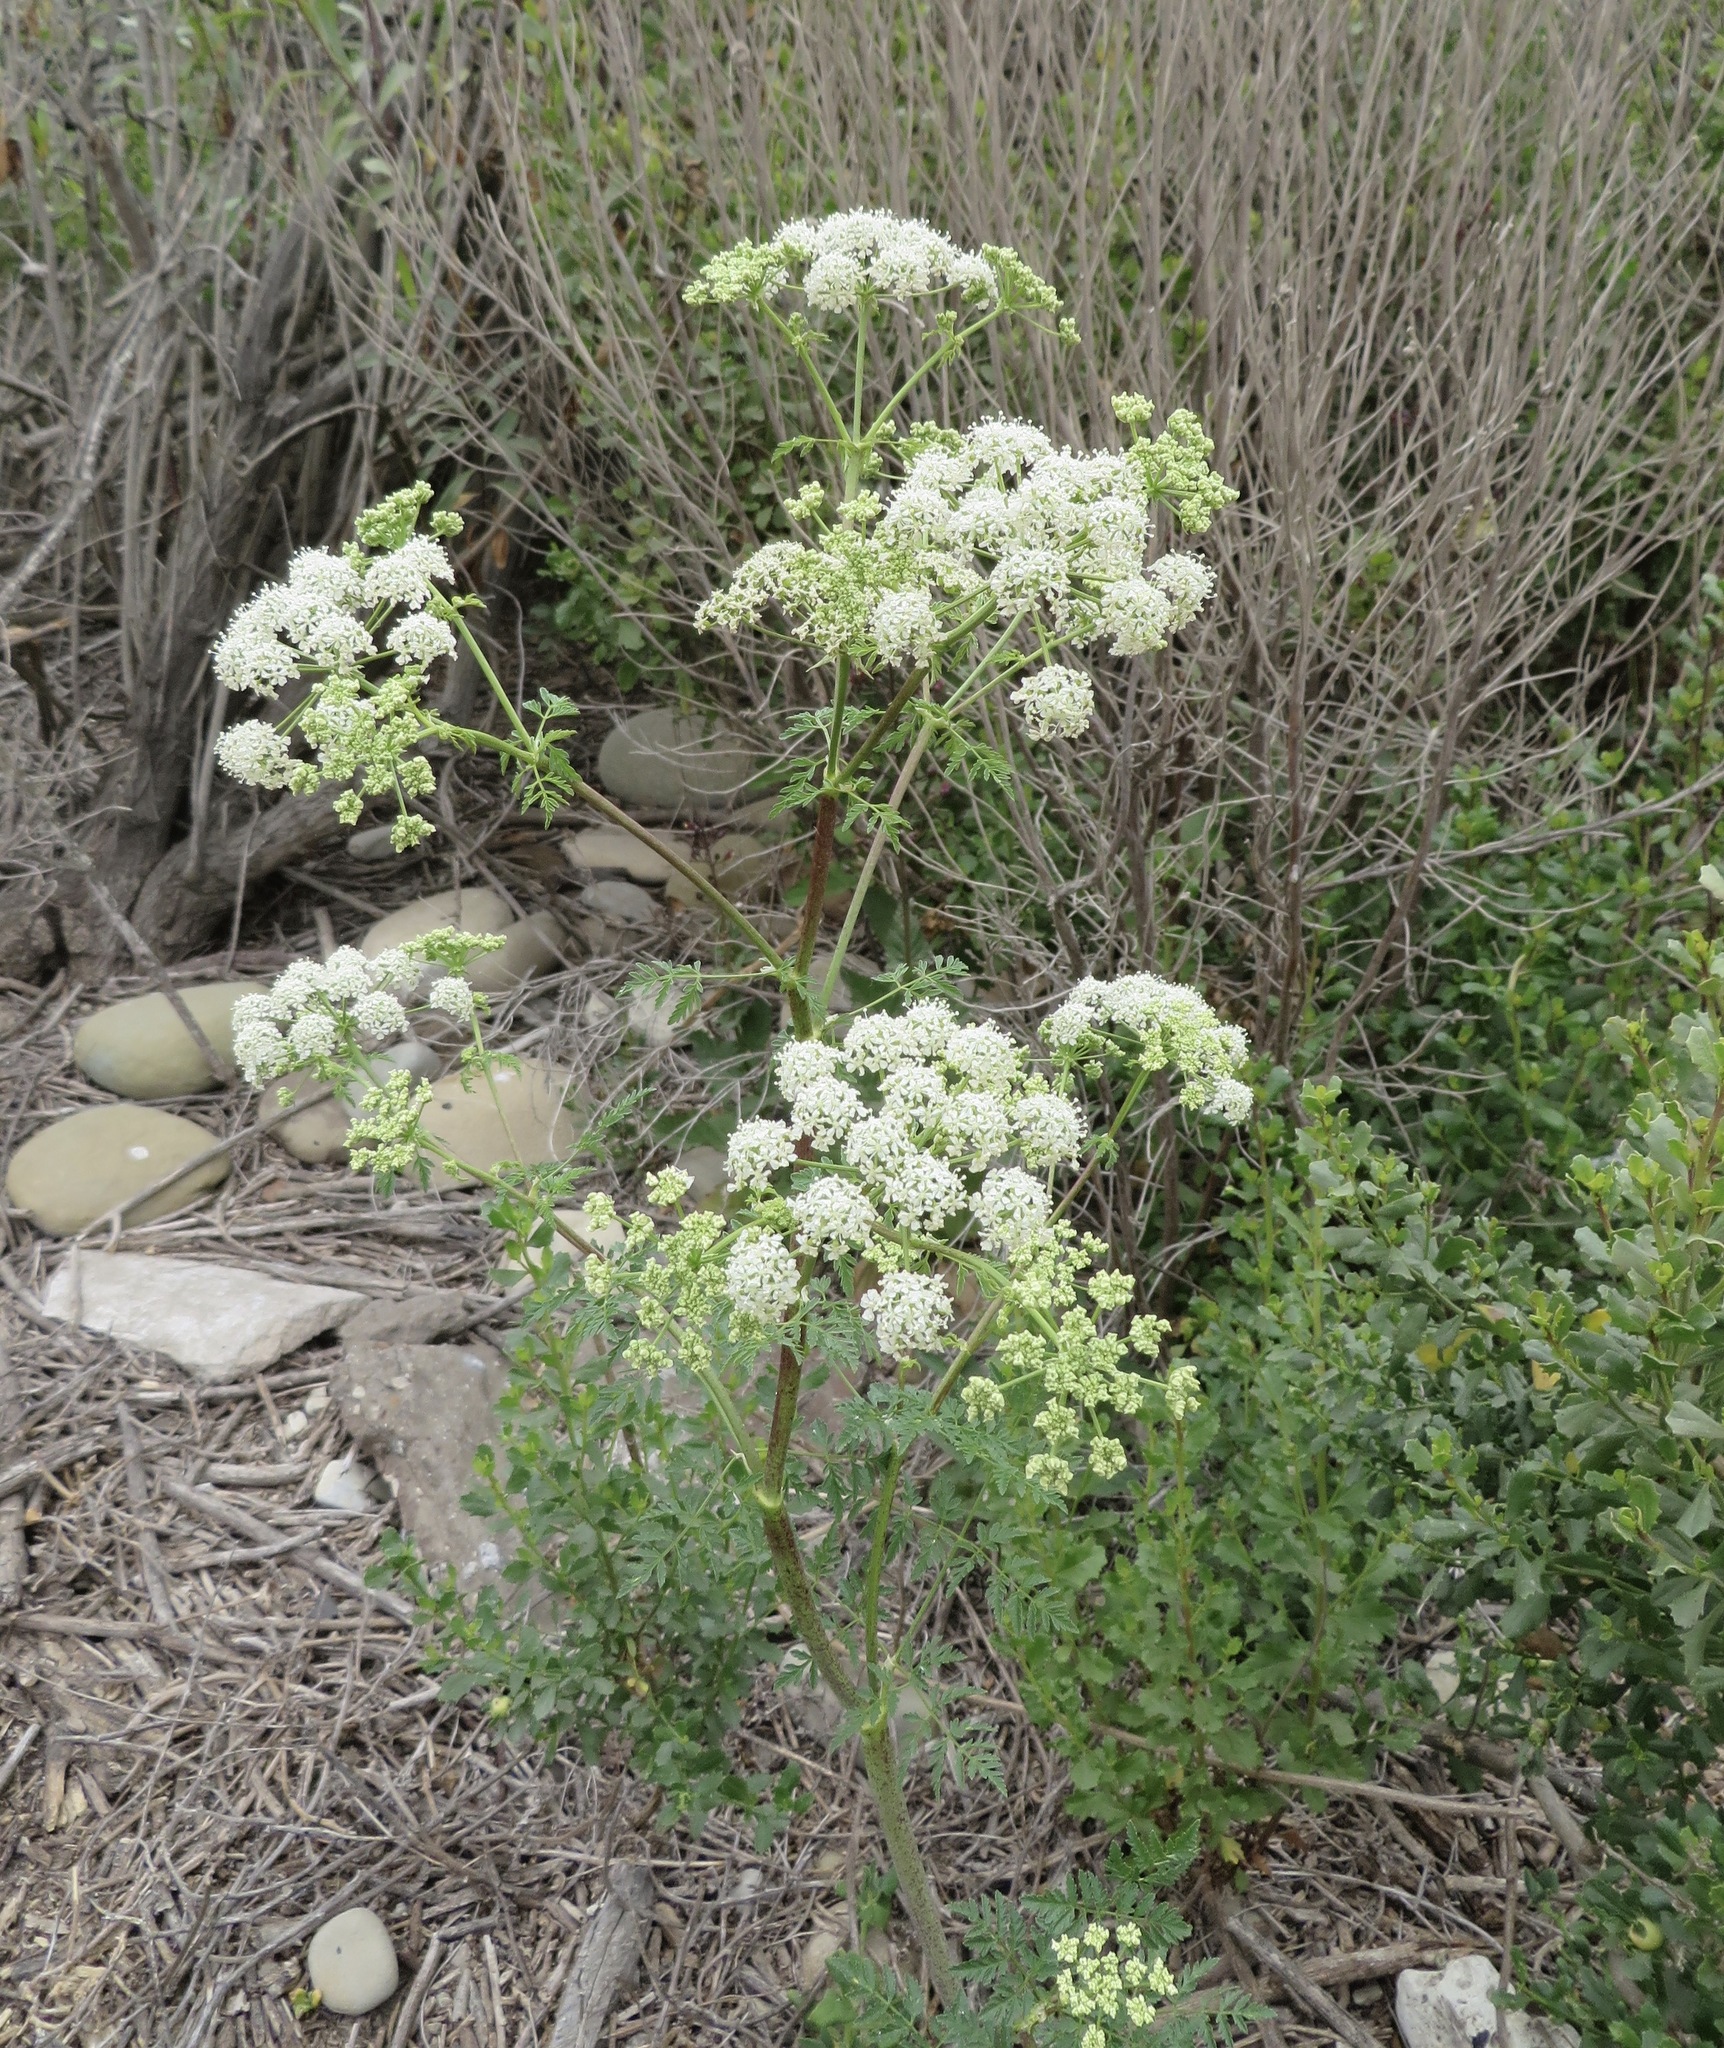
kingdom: Plantae
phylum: Tracheophyta
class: Magnoliopsida
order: Apiales
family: Apiaceae
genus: Conium
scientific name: Conium maculatum
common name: Hemlock
